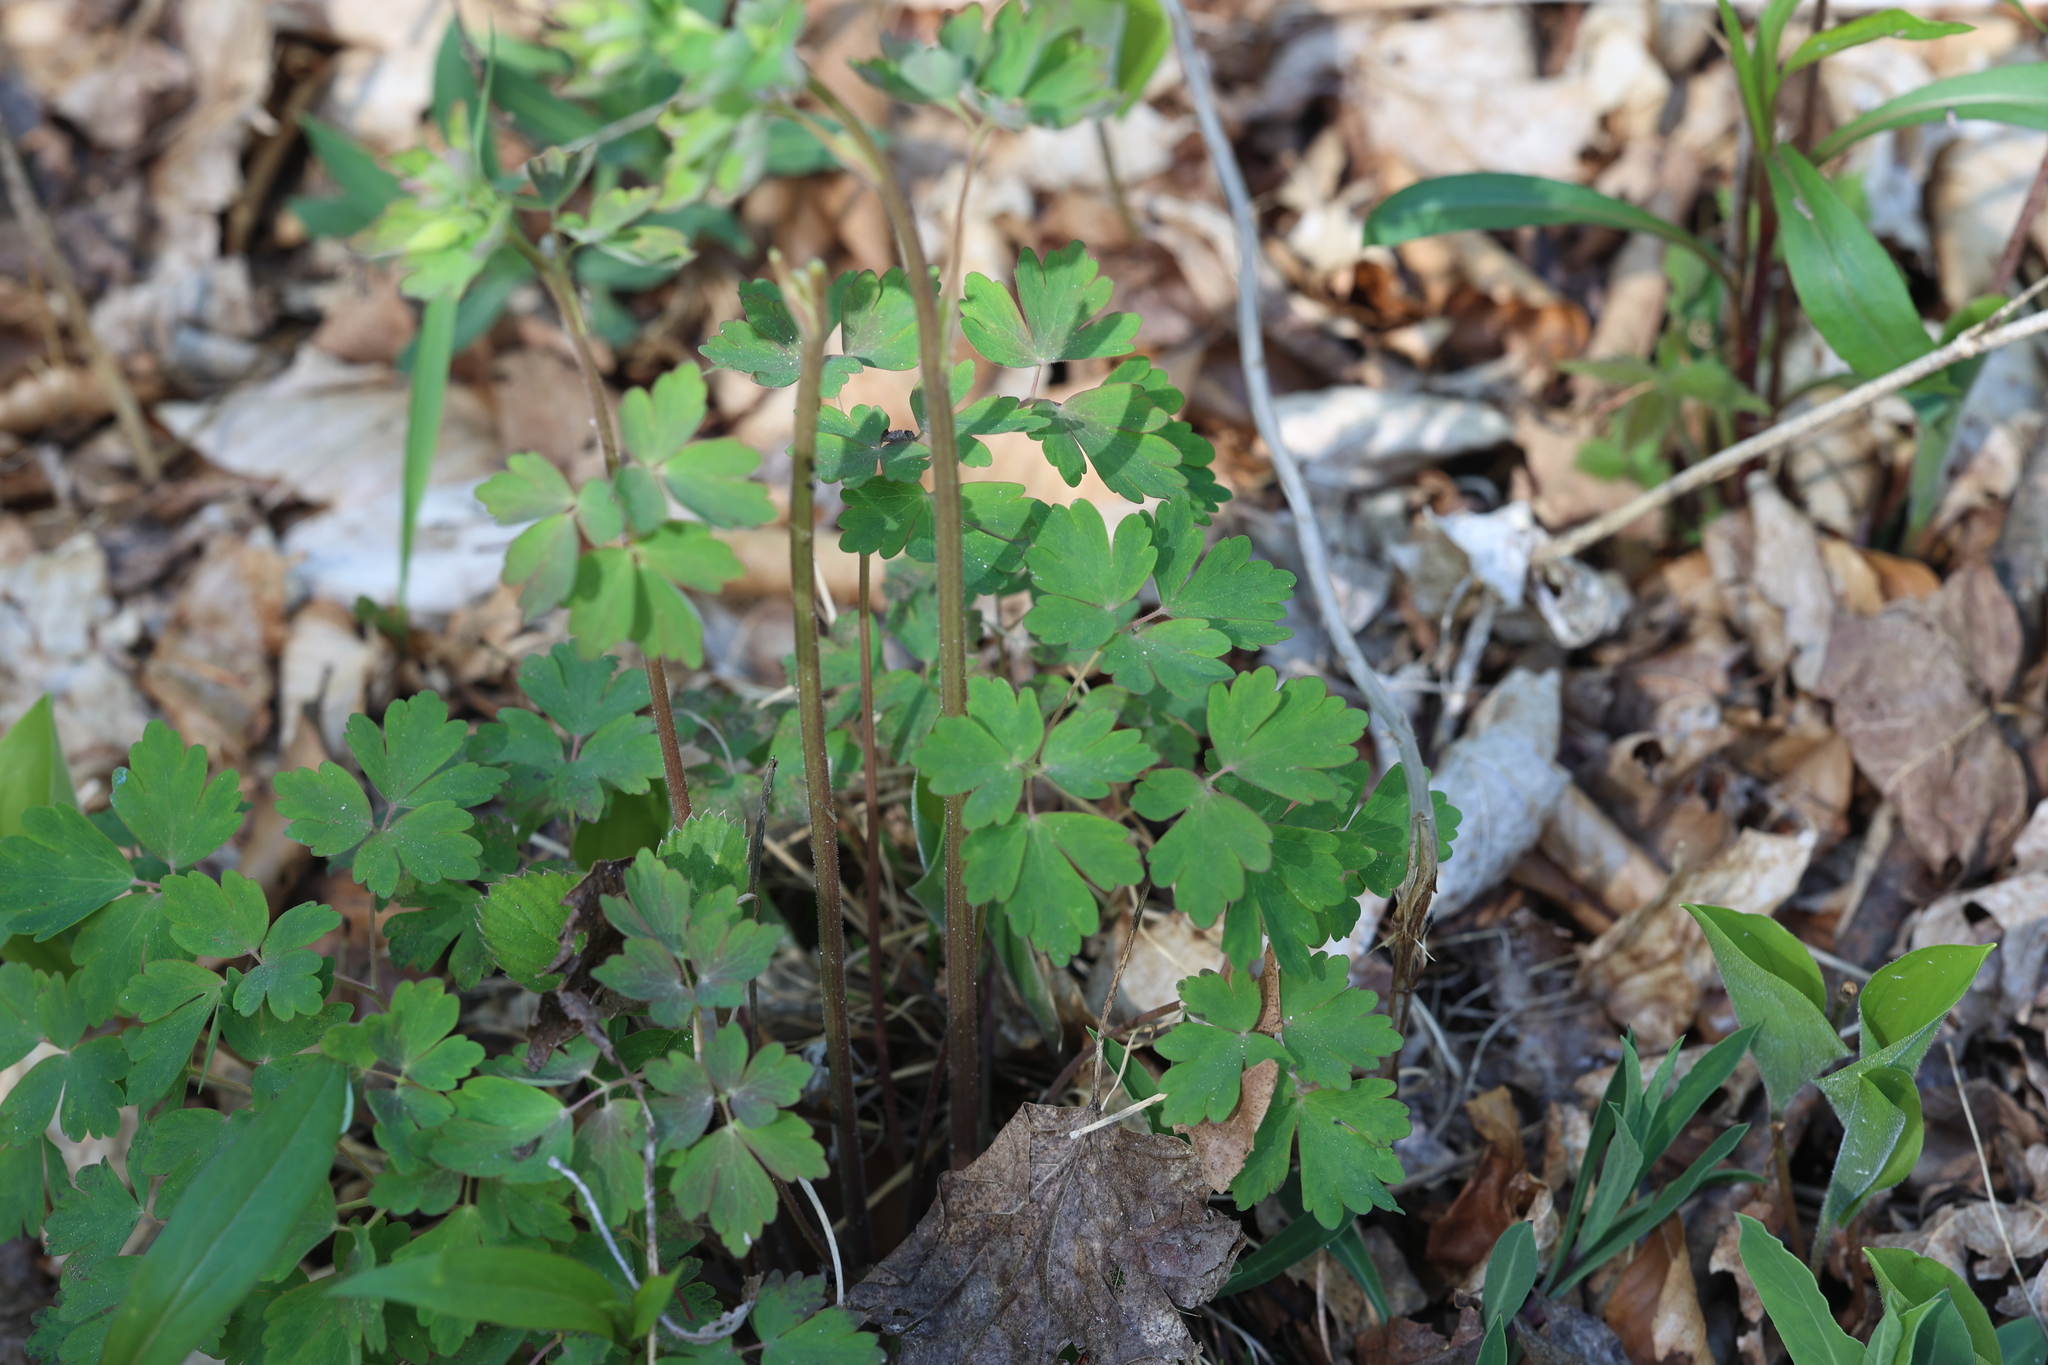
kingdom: Plantae
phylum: Tracheophyta
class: Magnoliopsida
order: Ranunculales
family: Ranunculaceae
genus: Aquilegia
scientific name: Aquilegia canadensis
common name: American columbine
